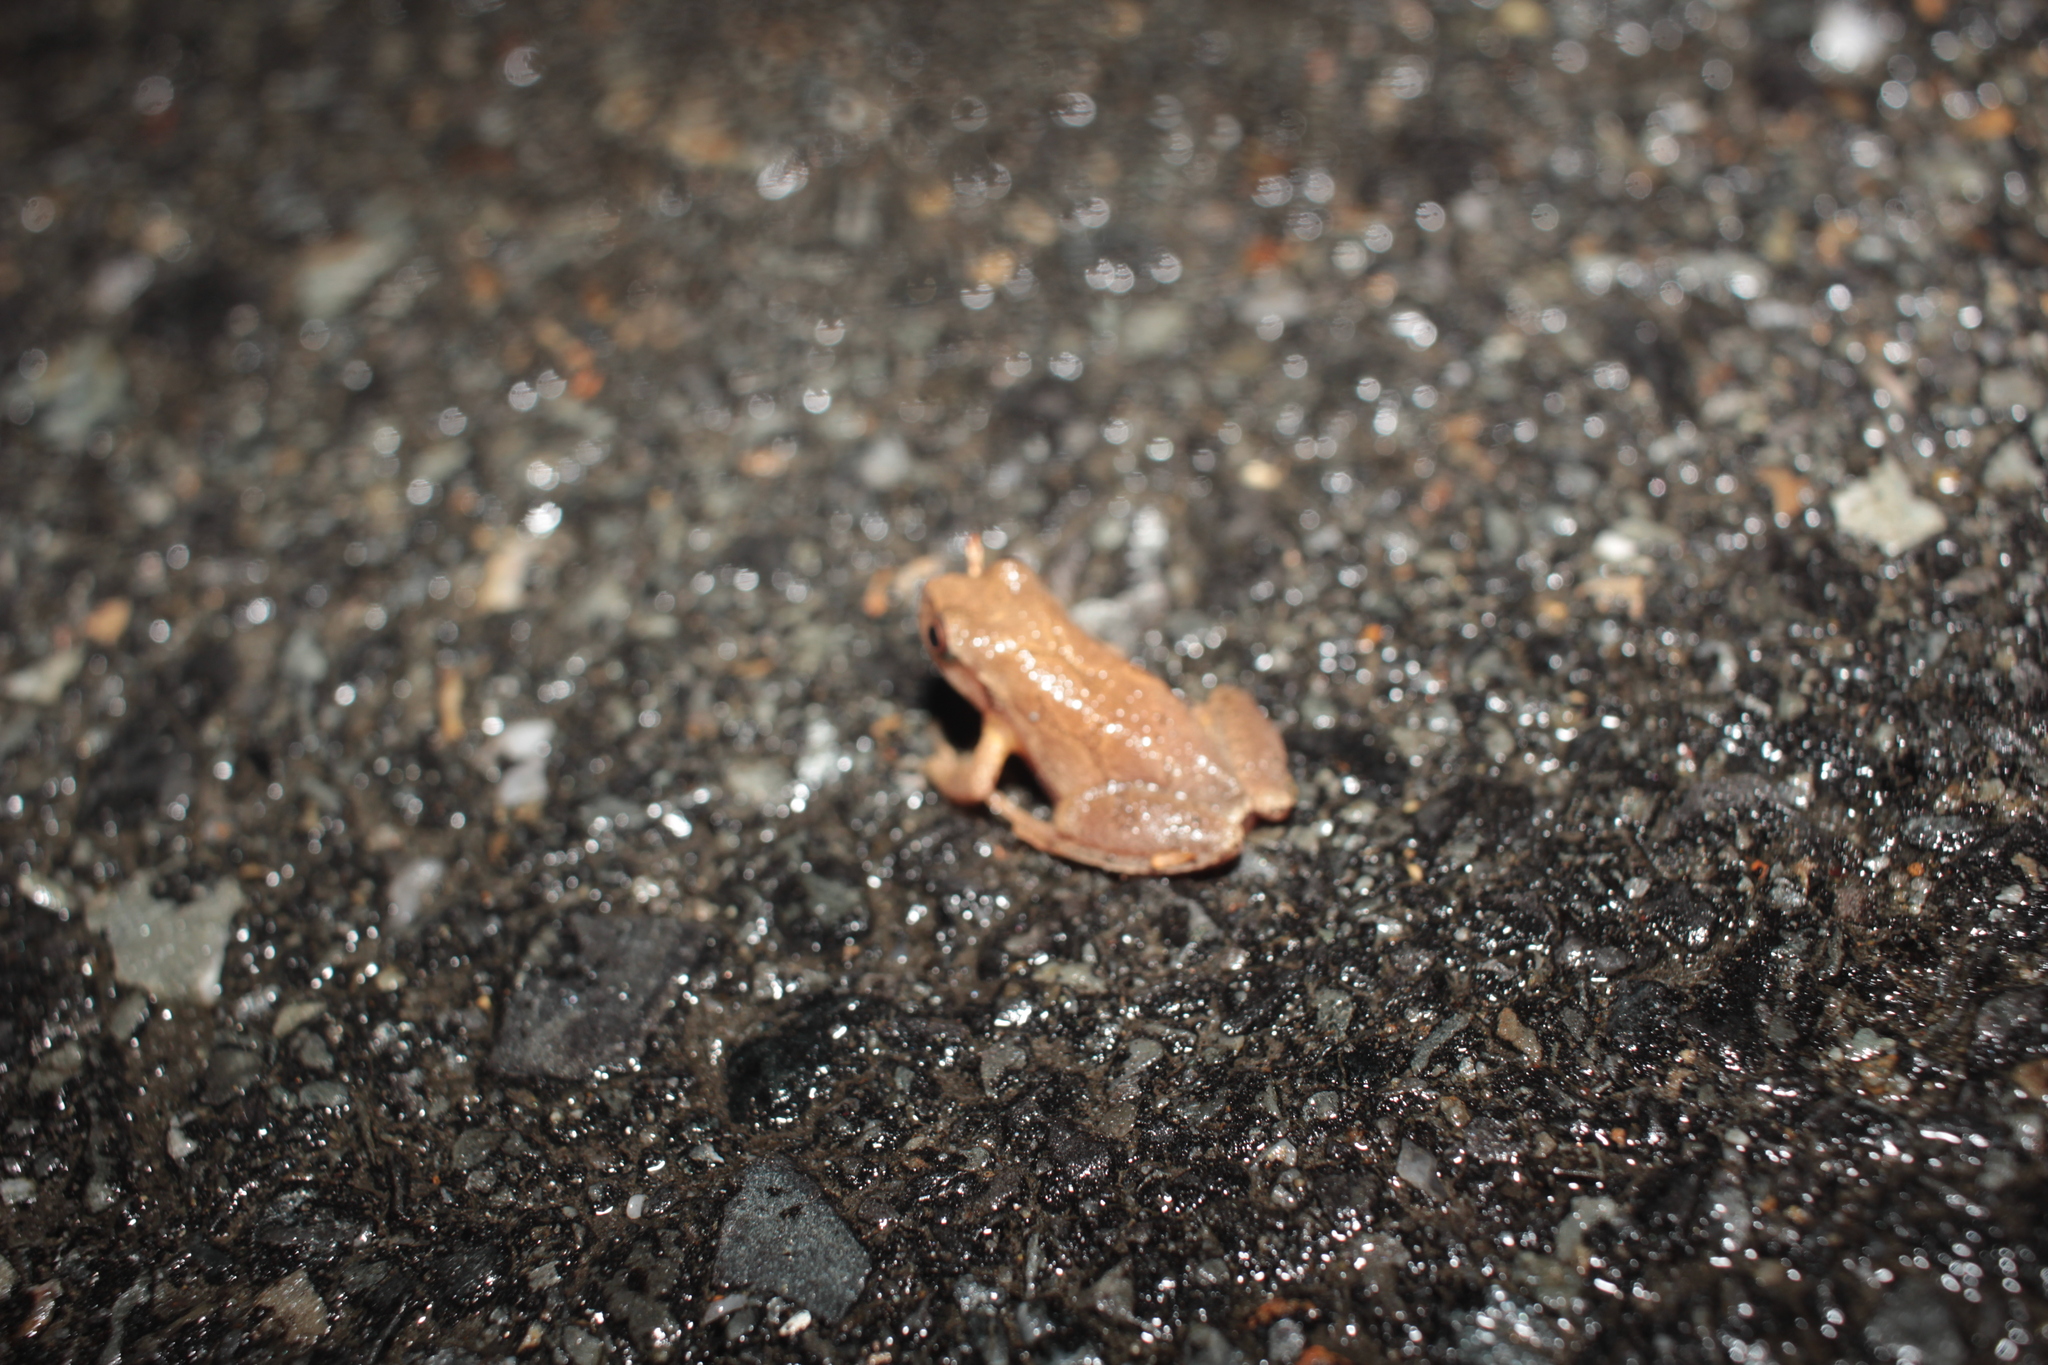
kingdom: Animalia
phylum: Chordata
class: Amphibia
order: Anura
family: Hylidae
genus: Pseudacris
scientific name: Pseudacris crucifer
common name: Spring peeper
